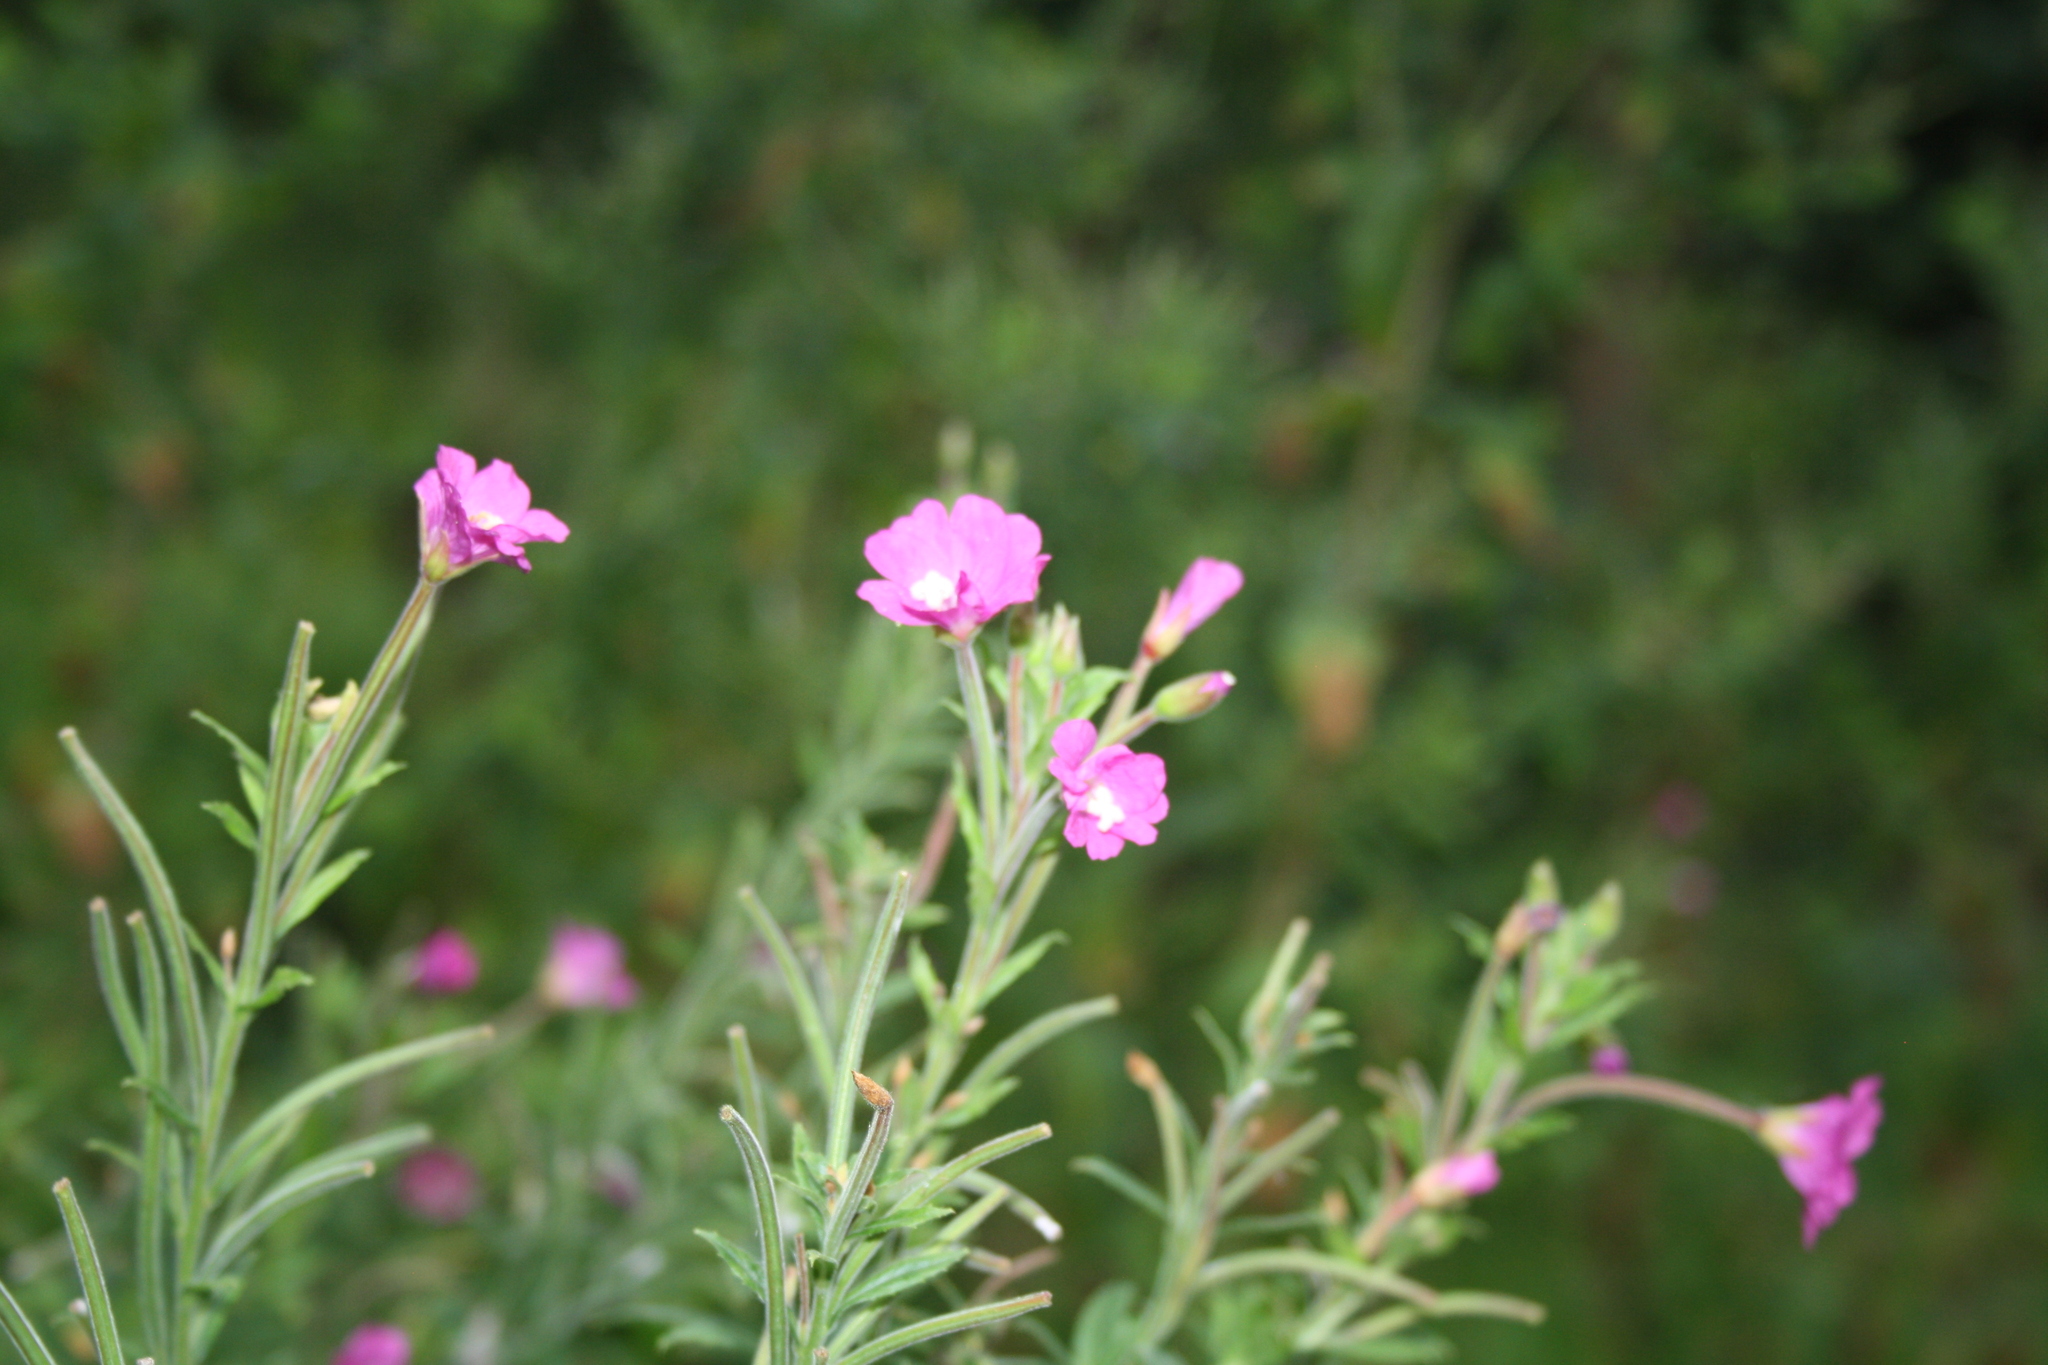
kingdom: Plantae
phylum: Tracheophyta
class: Magnoliopsida
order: Myrtales
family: Onagraceae
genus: Epilobium
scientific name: Epilobium hirsutum
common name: Great willowherb
